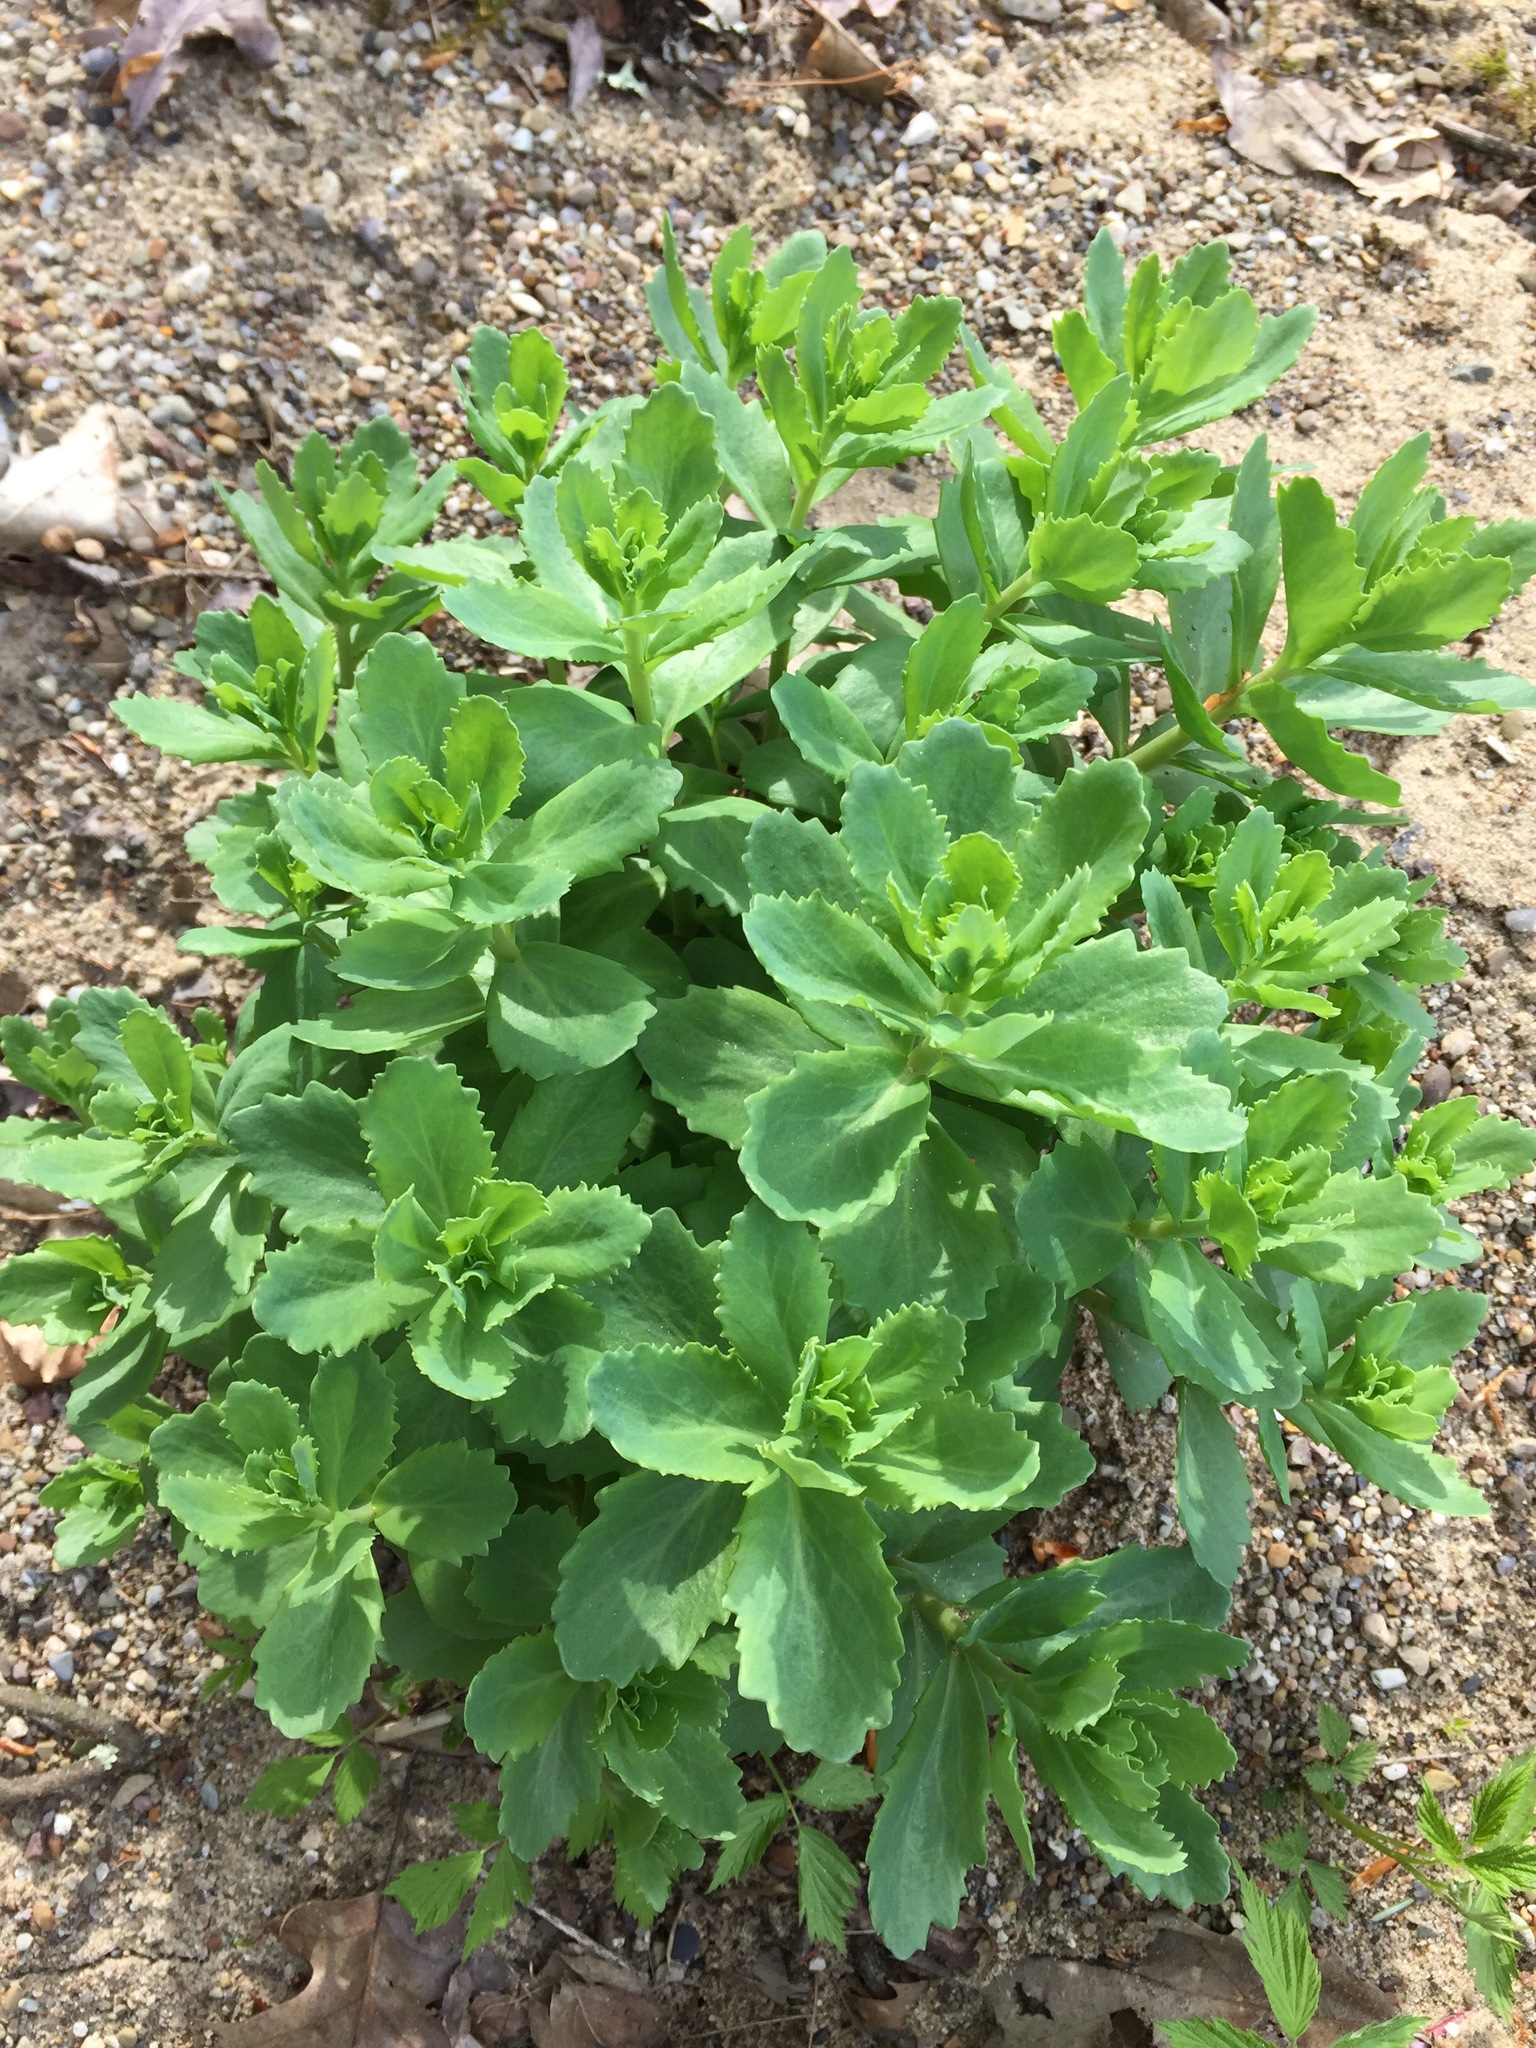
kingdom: Plantae
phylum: Tracheophyta
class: Magnoliopsida
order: Saxifragales
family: Crassulaceae
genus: Hylotelephium
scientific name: Hylotelephium telephium
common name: Live-forever
